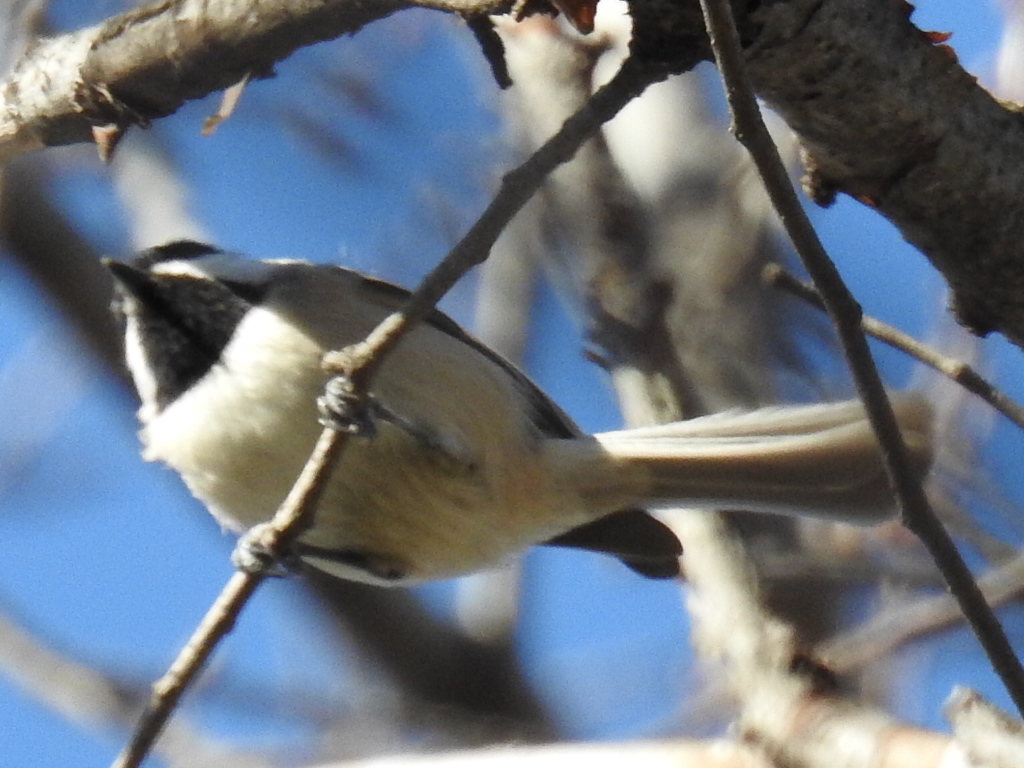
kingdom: Animalia
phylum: Chordata
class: Aves
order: Passeriformes
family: Paridae
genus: Poecile
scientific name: Poecile carolinensis
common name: Carolina chickadee
